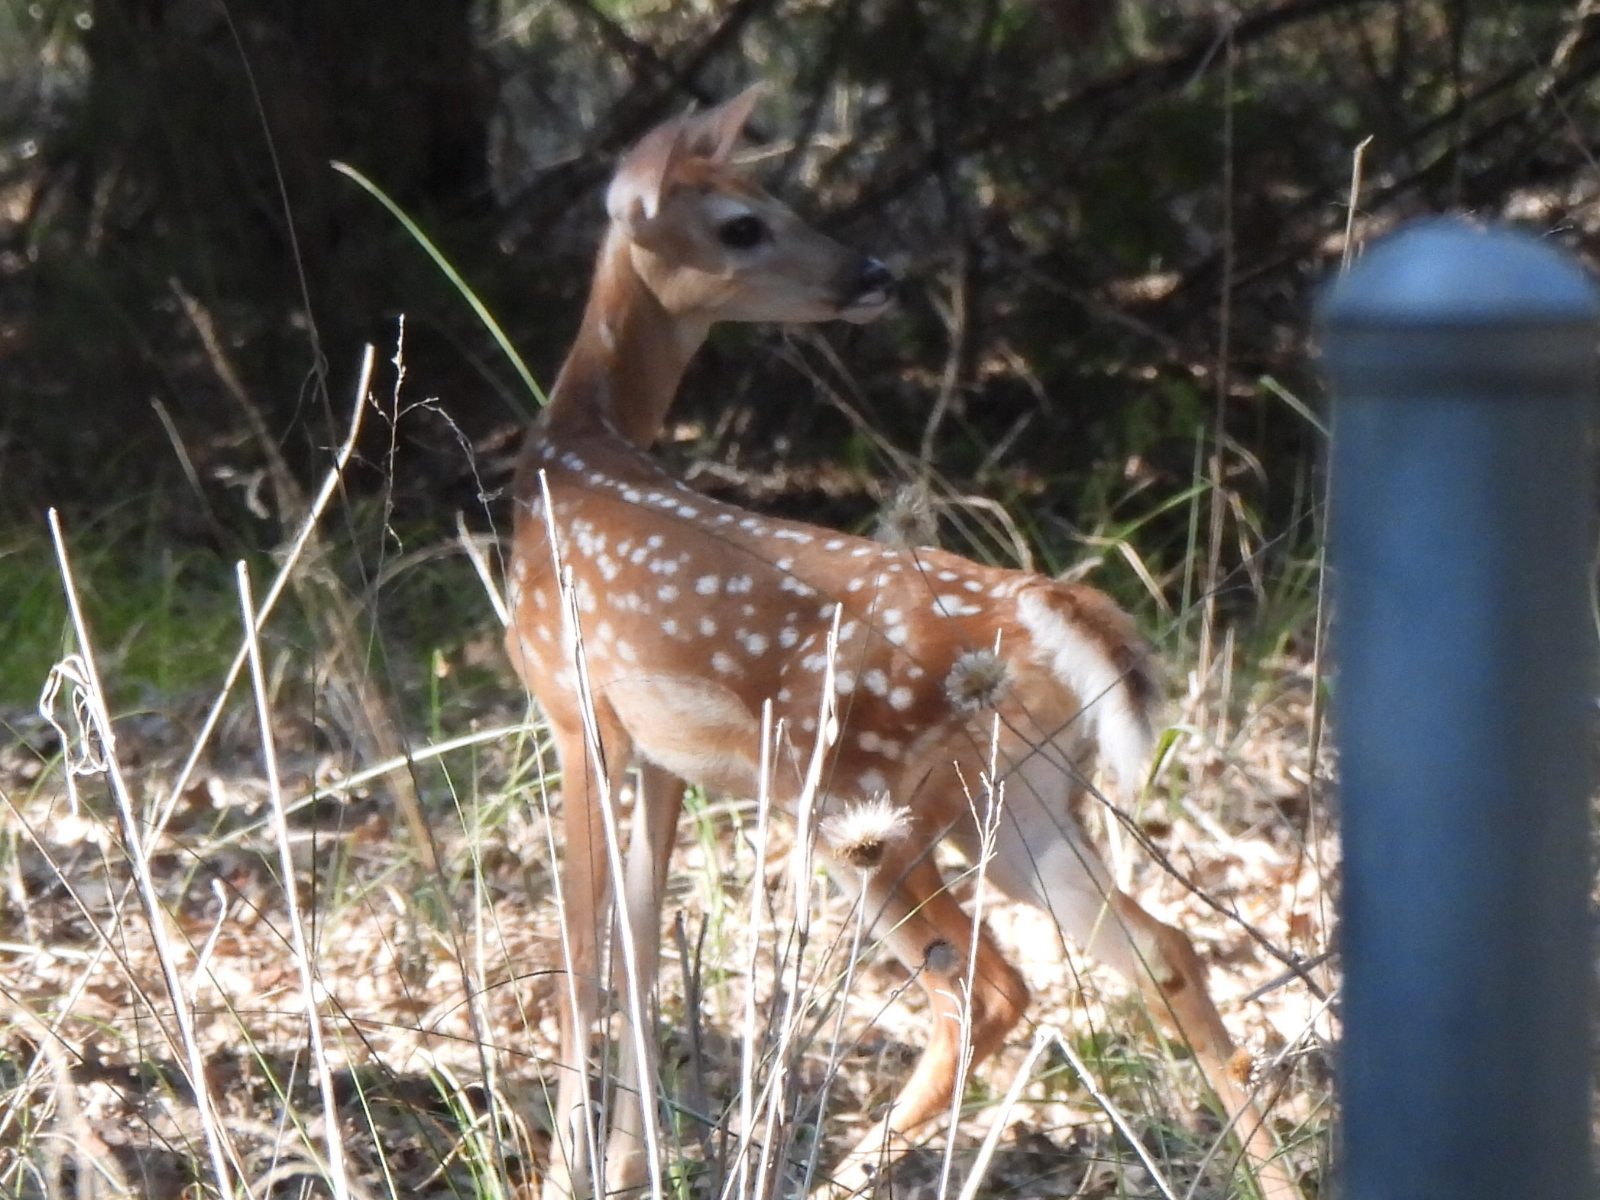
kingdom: Animalia
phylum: Chordata
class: Mammalia
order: Artiodactyla
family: Cervidae
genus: Odocoileus
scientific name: Odocoileus virginianus
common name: White-tailed deer
